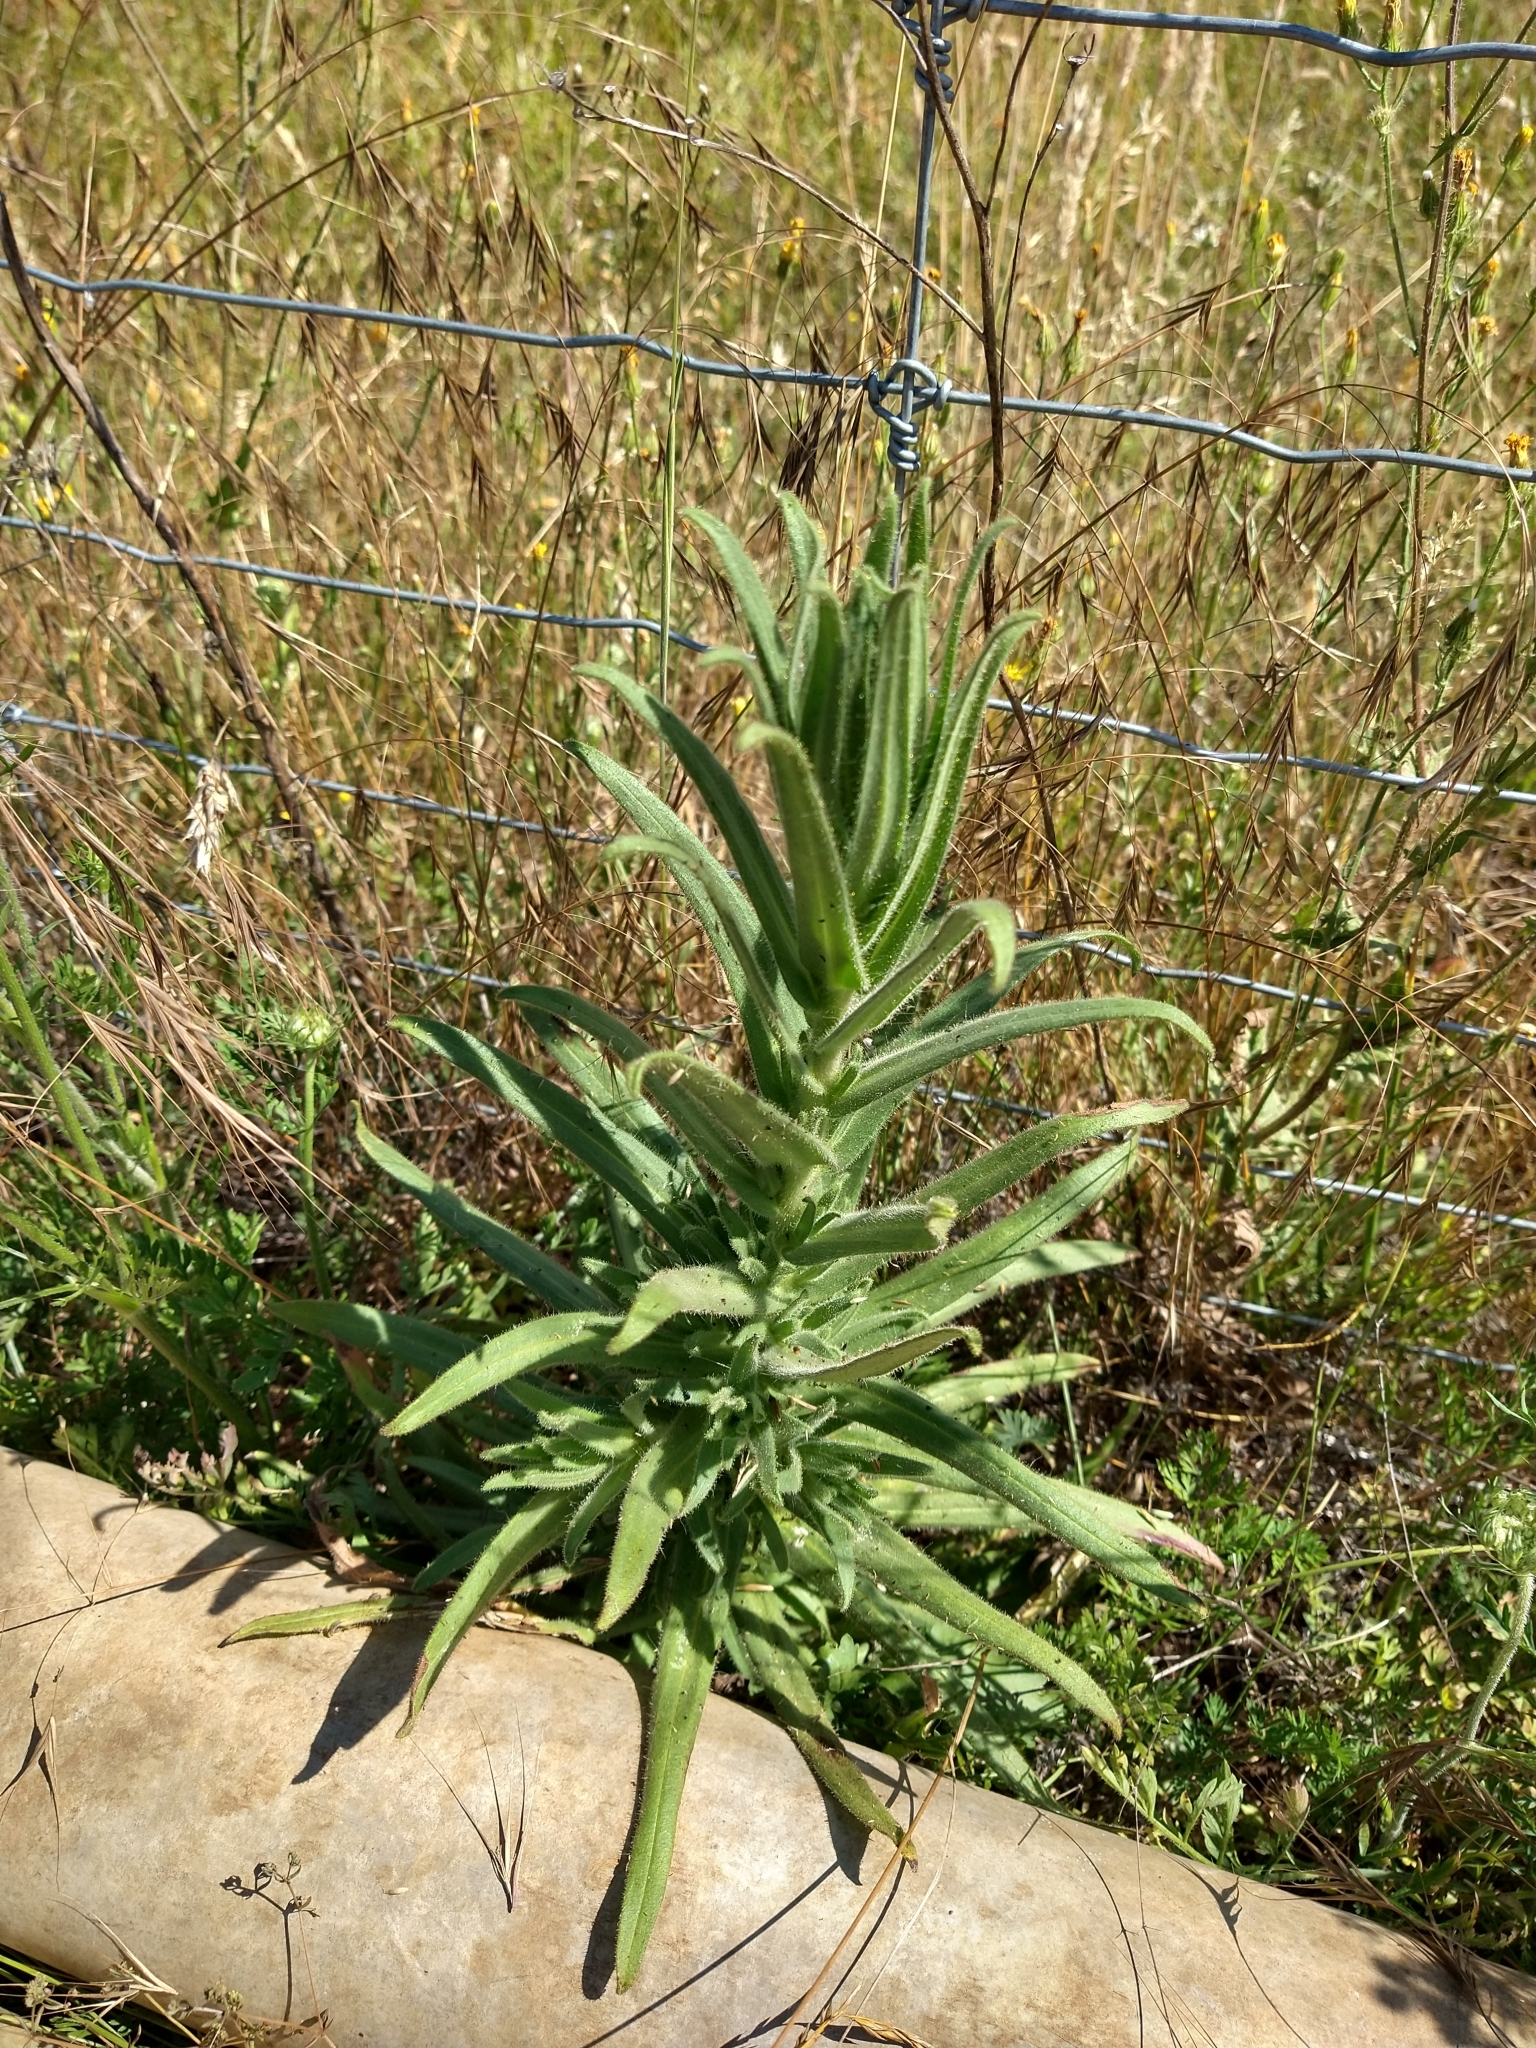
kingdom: Plantae
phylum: Tracheophyta
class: Magnoliopsida
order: Asterales
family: Asteraceae
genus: Madia
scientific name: Madia elegans
